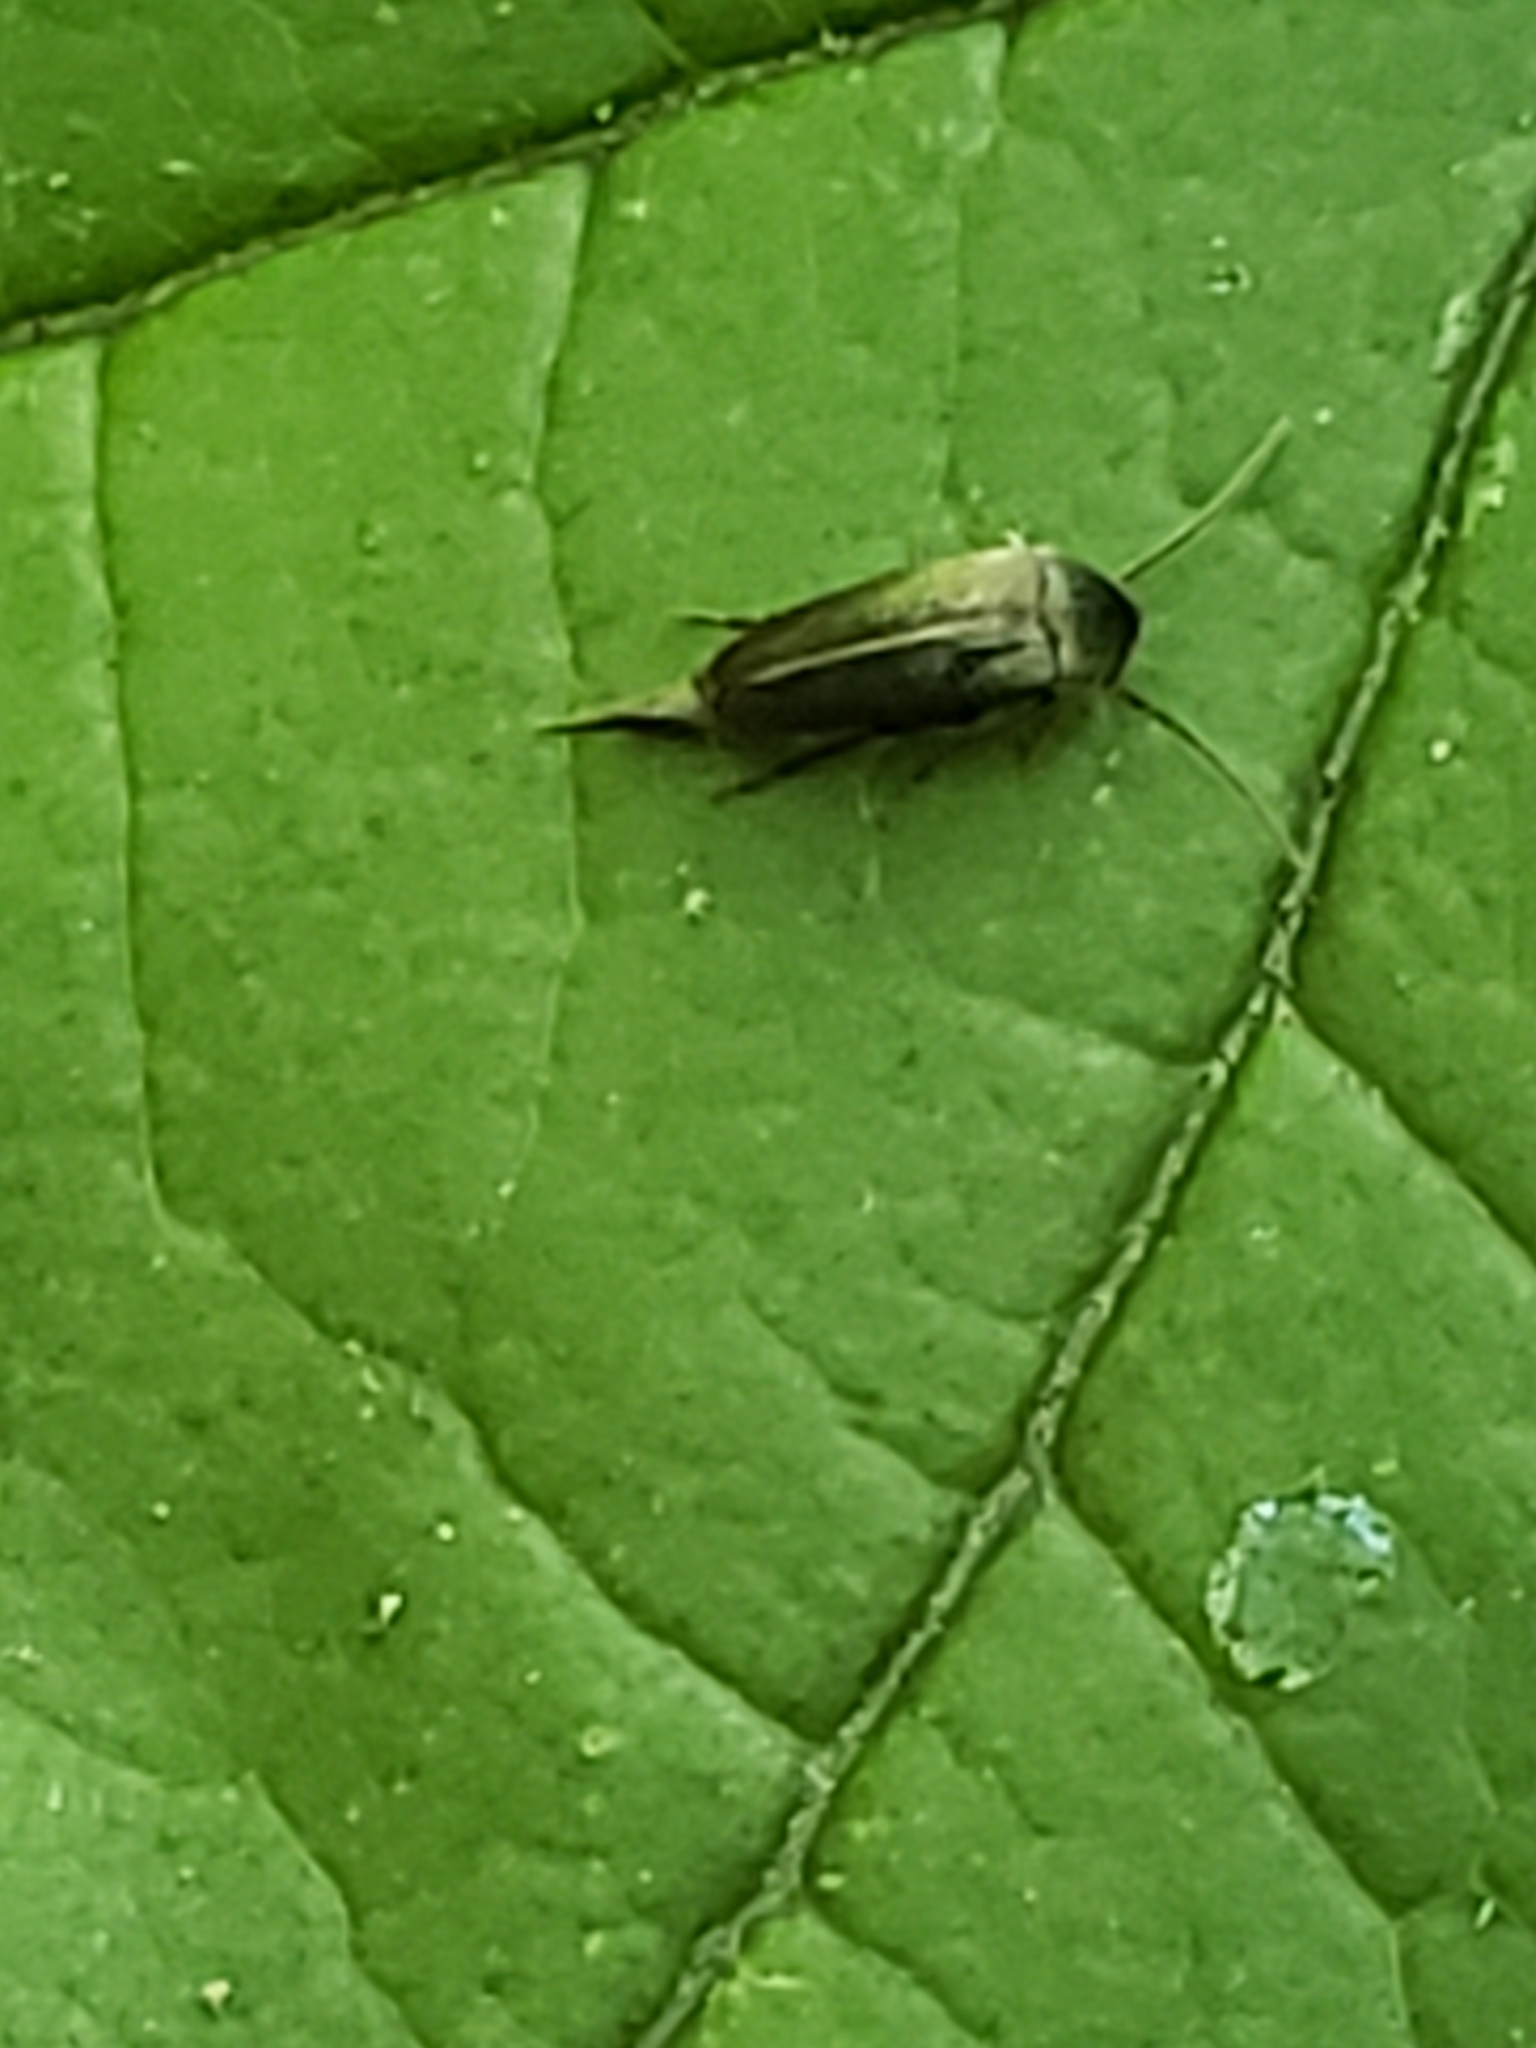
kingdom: Animalia
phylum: Arthropoda
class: Insecta
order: Coleoptera
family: Mordellidae
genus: Mordellistena
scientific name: Mordellistena vera
